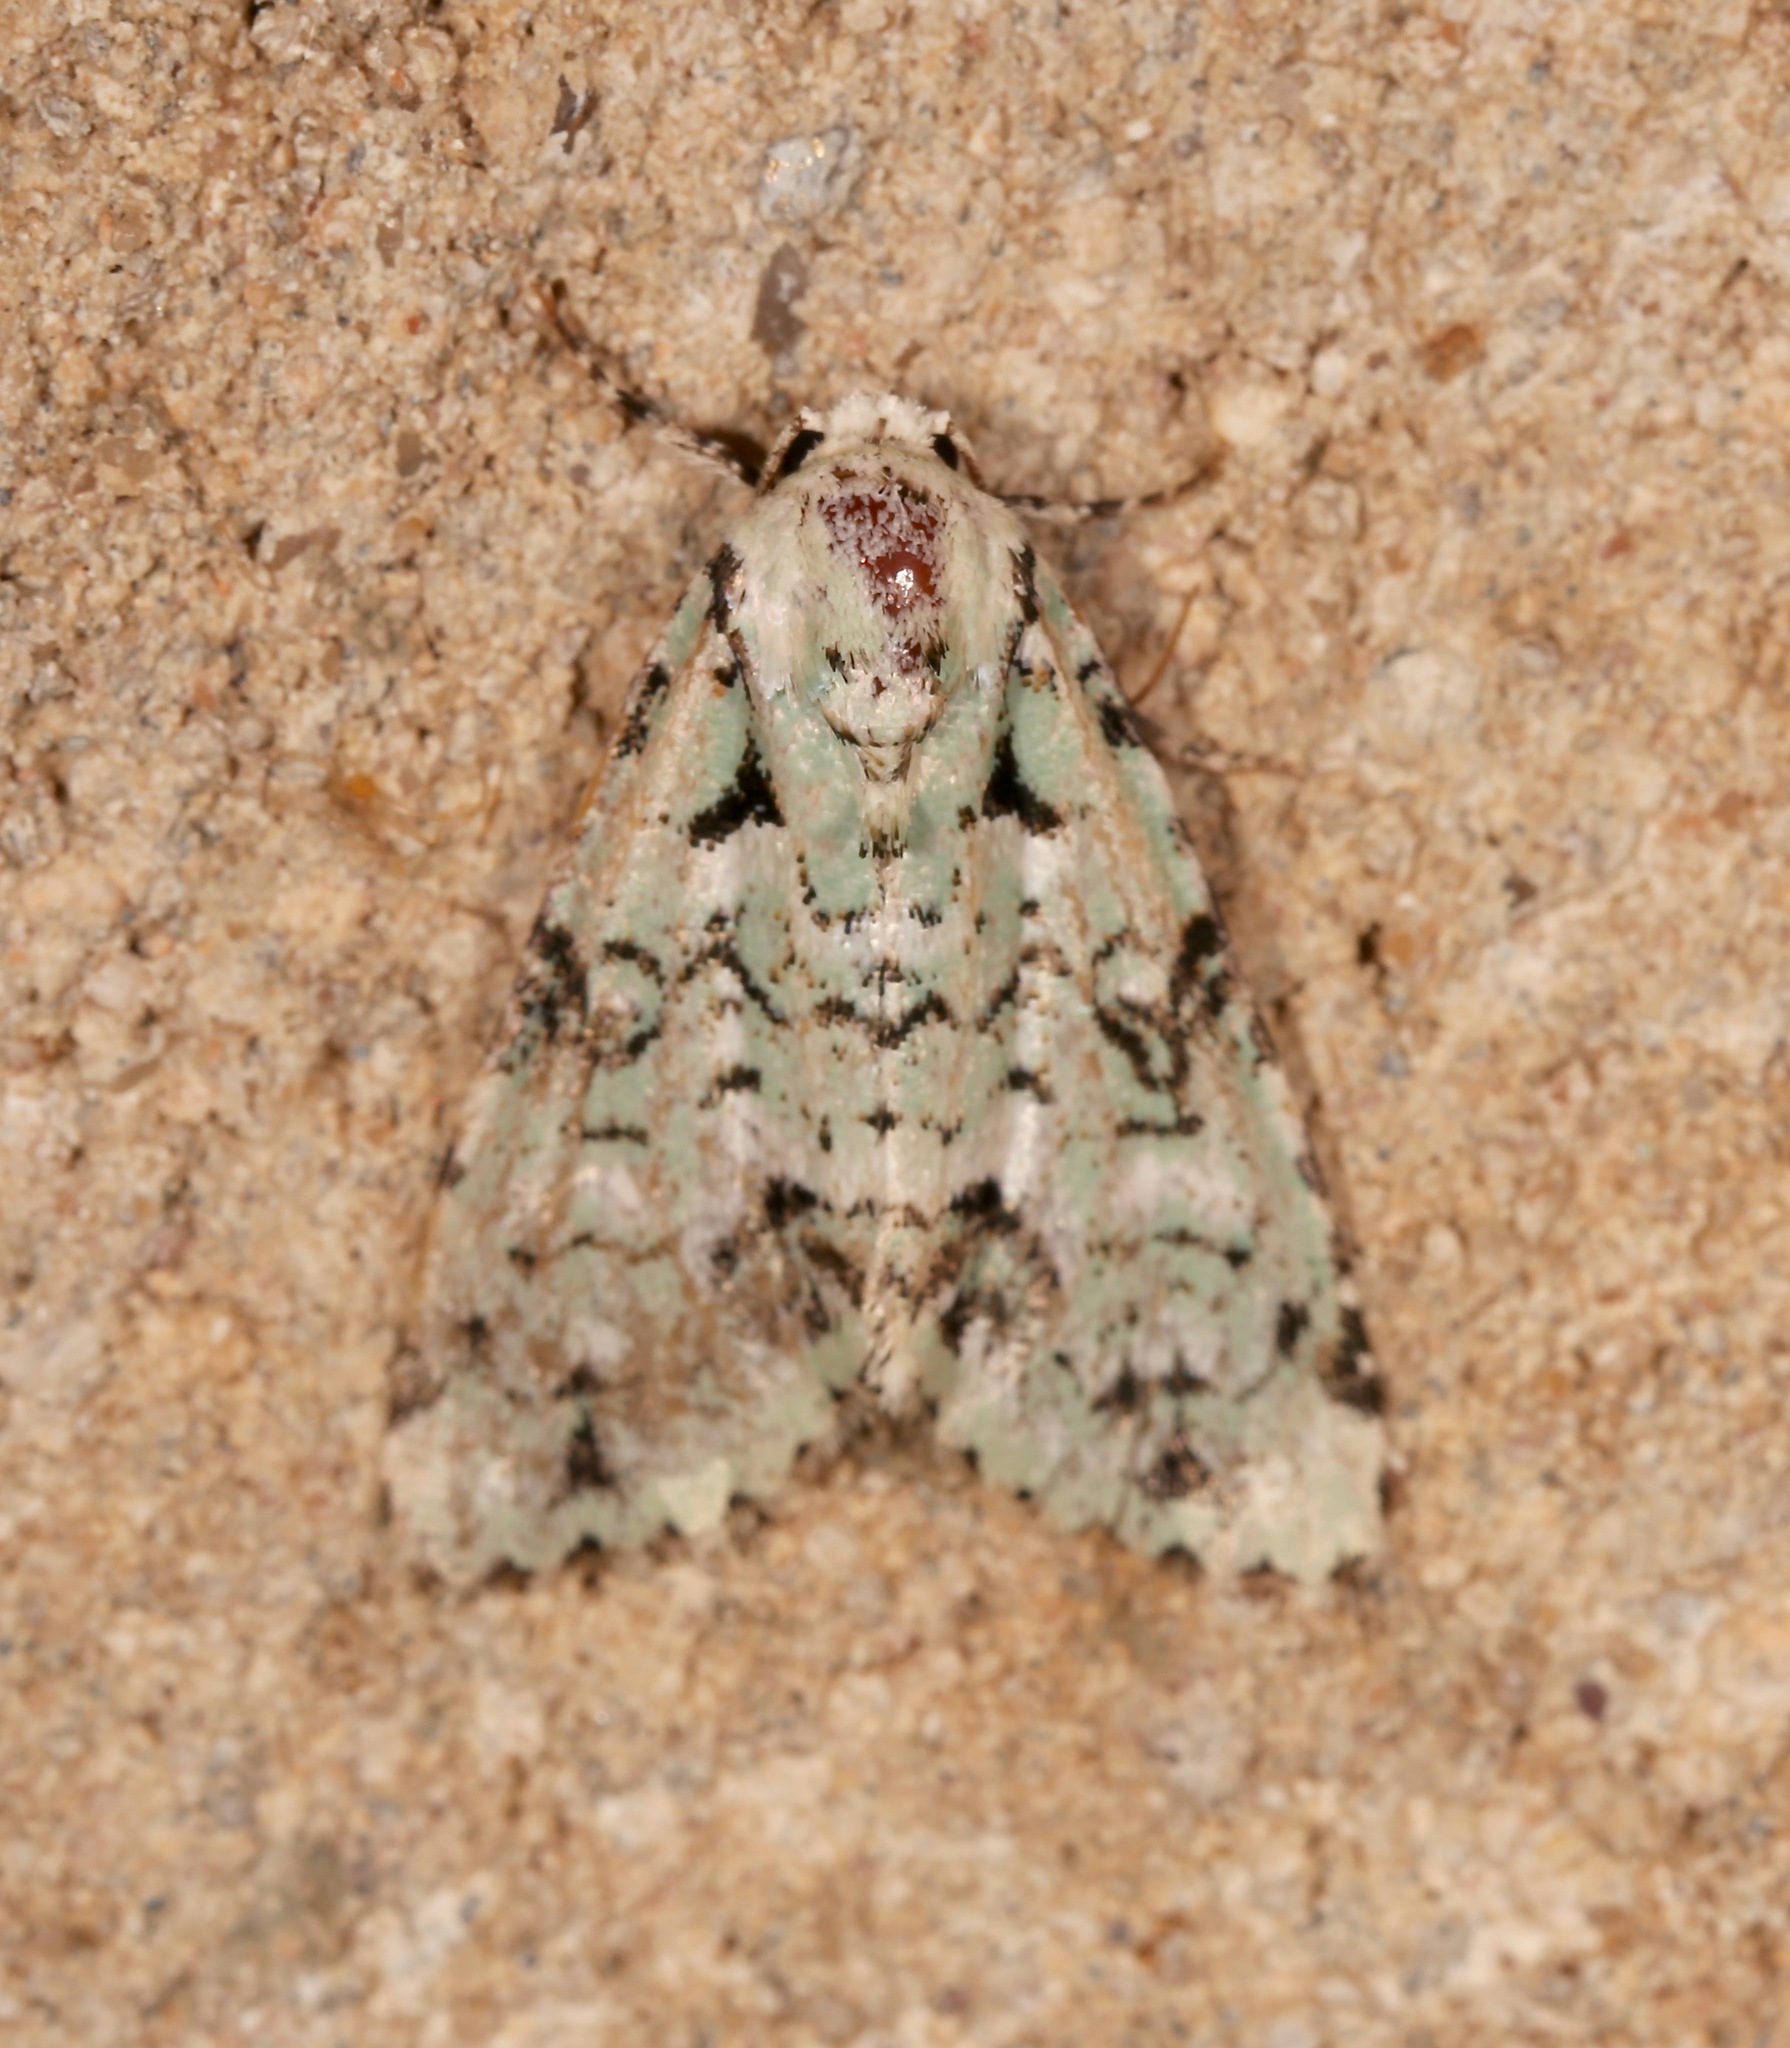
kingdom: Animalia
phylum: Arthropoda
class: Insecta
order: Lepidoptera
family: Noctuidae
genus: Chloronycta
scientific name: Chloronycta tybo
